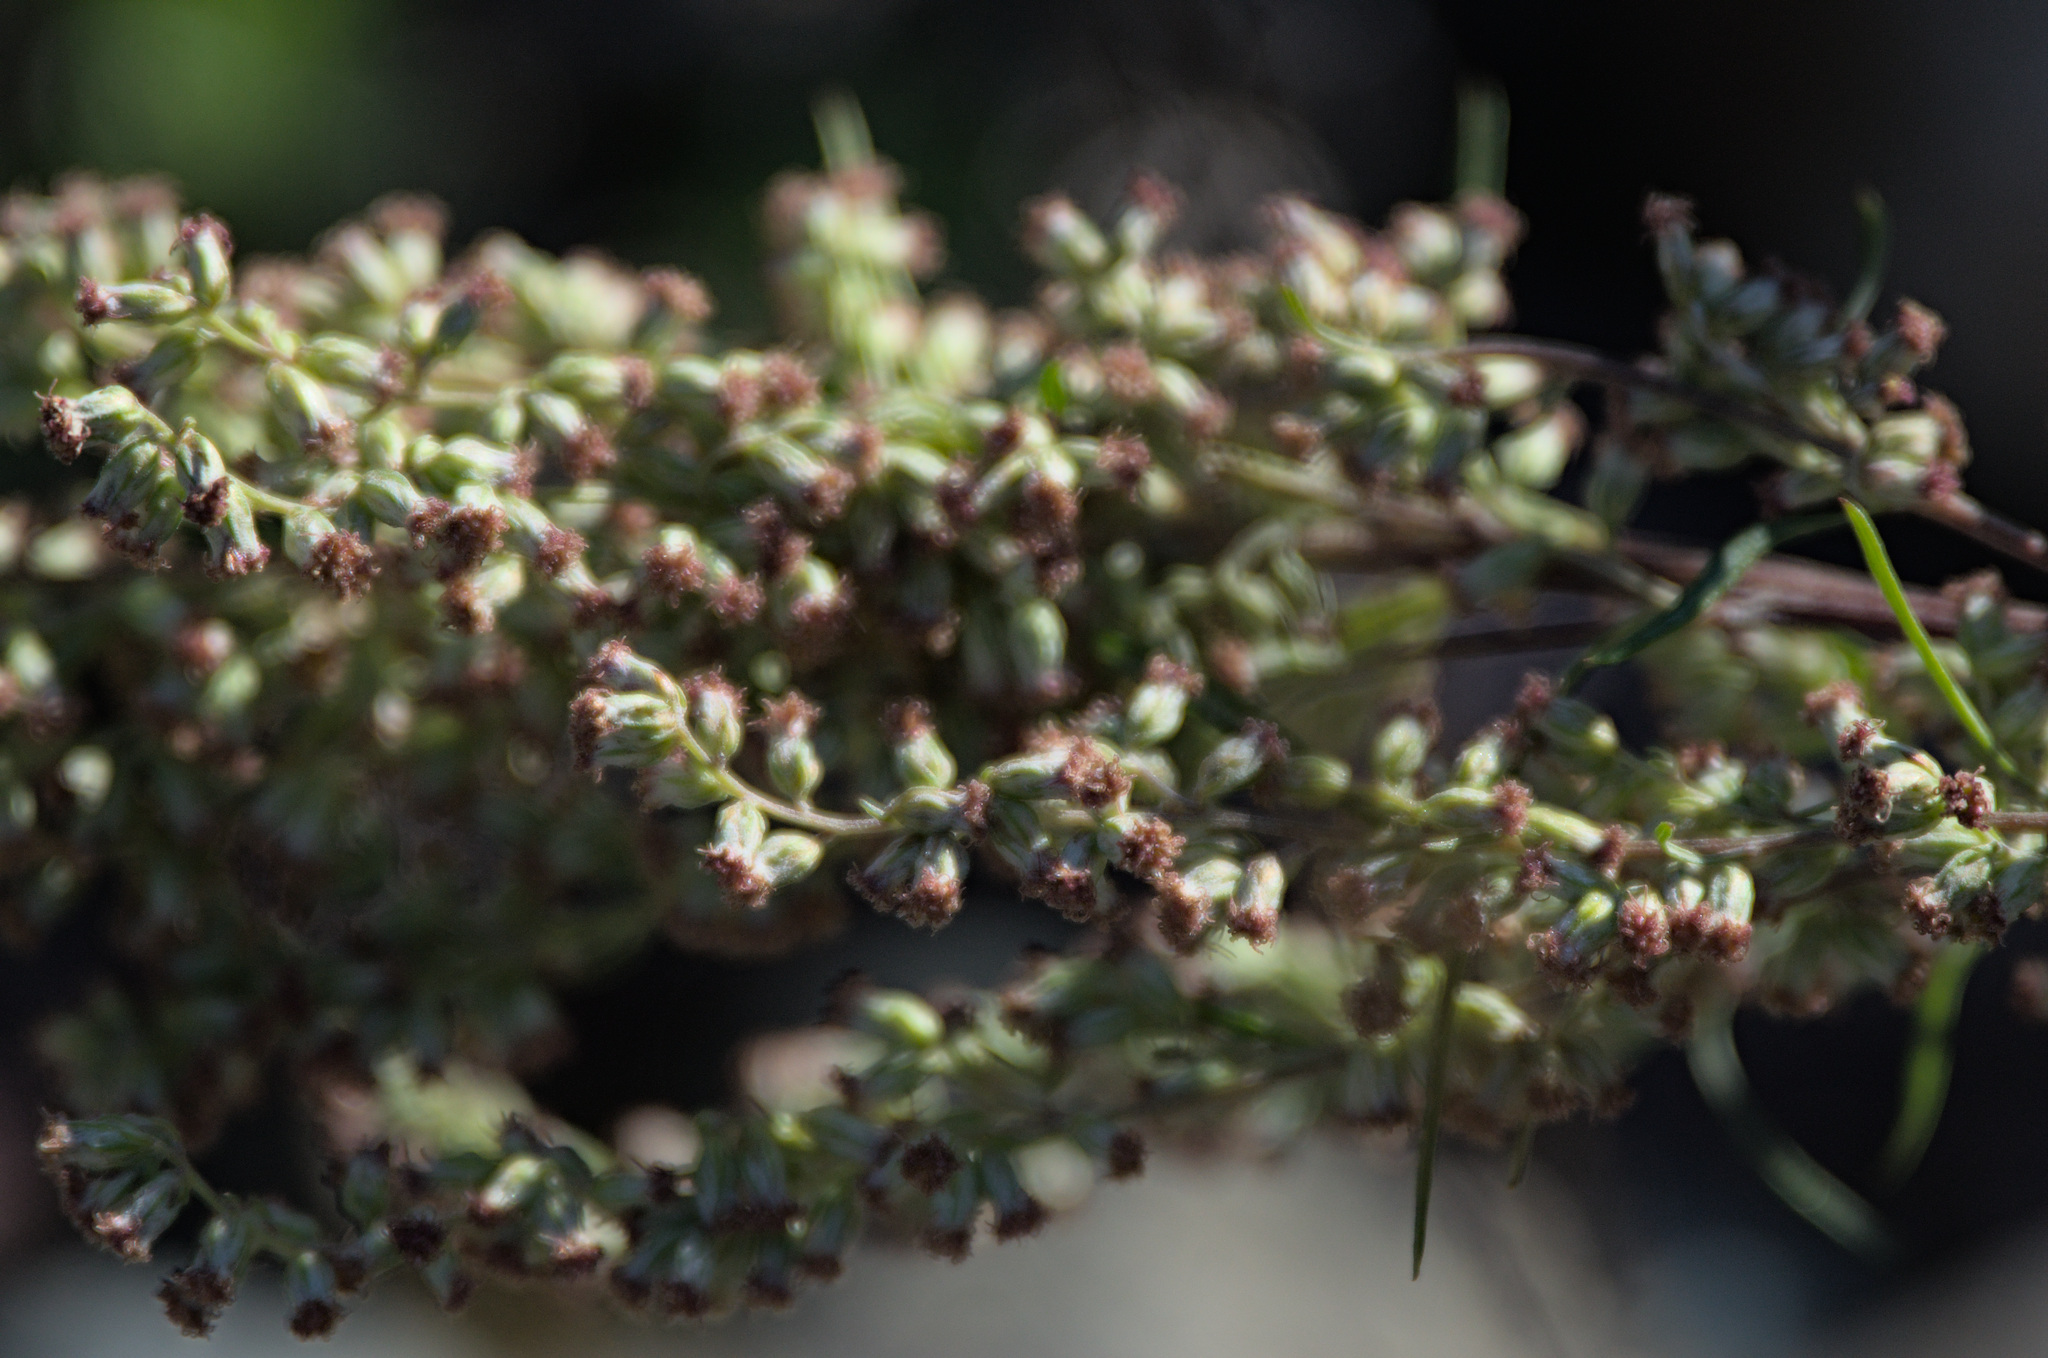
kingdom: Plantae
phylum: Tracheophyta
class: Magnoliopsida
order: Asterales
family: Asteraceae
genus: Artemisia
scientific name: Artemisia vulgaris
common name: Mugwort
